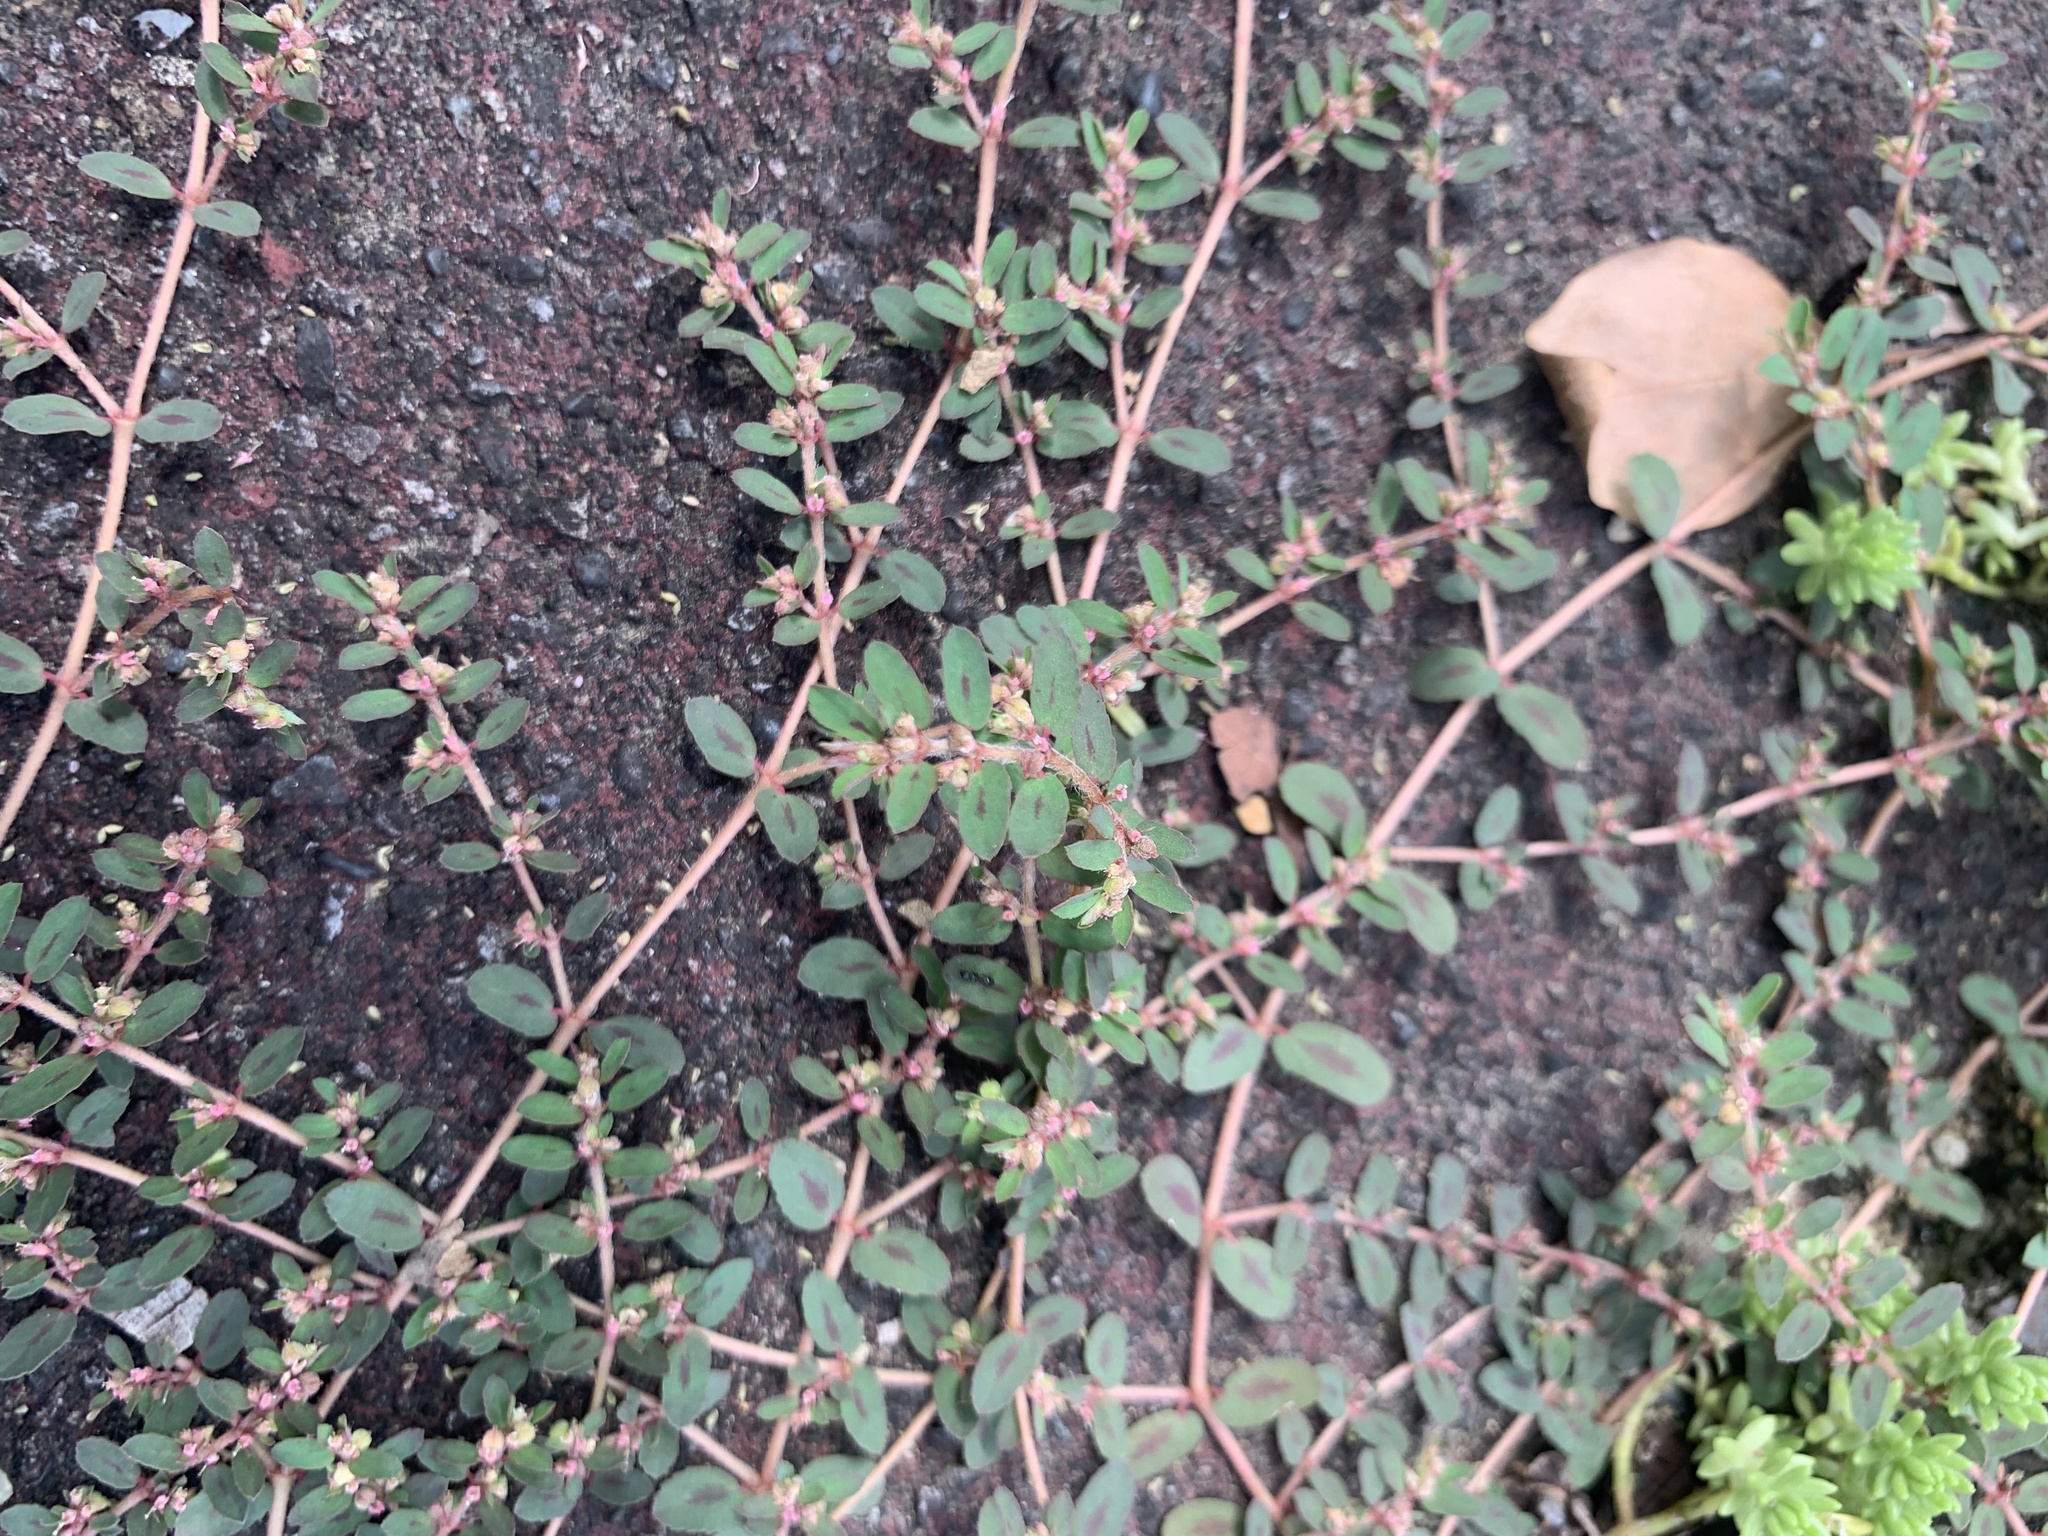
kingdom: Plantae
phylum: Tracheophyta
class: Magnoliopsida
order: Malpighiales
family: Euphorbiaceae
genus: Euphorbia
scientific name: Euphorbia maculata
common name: Spotted spurge
